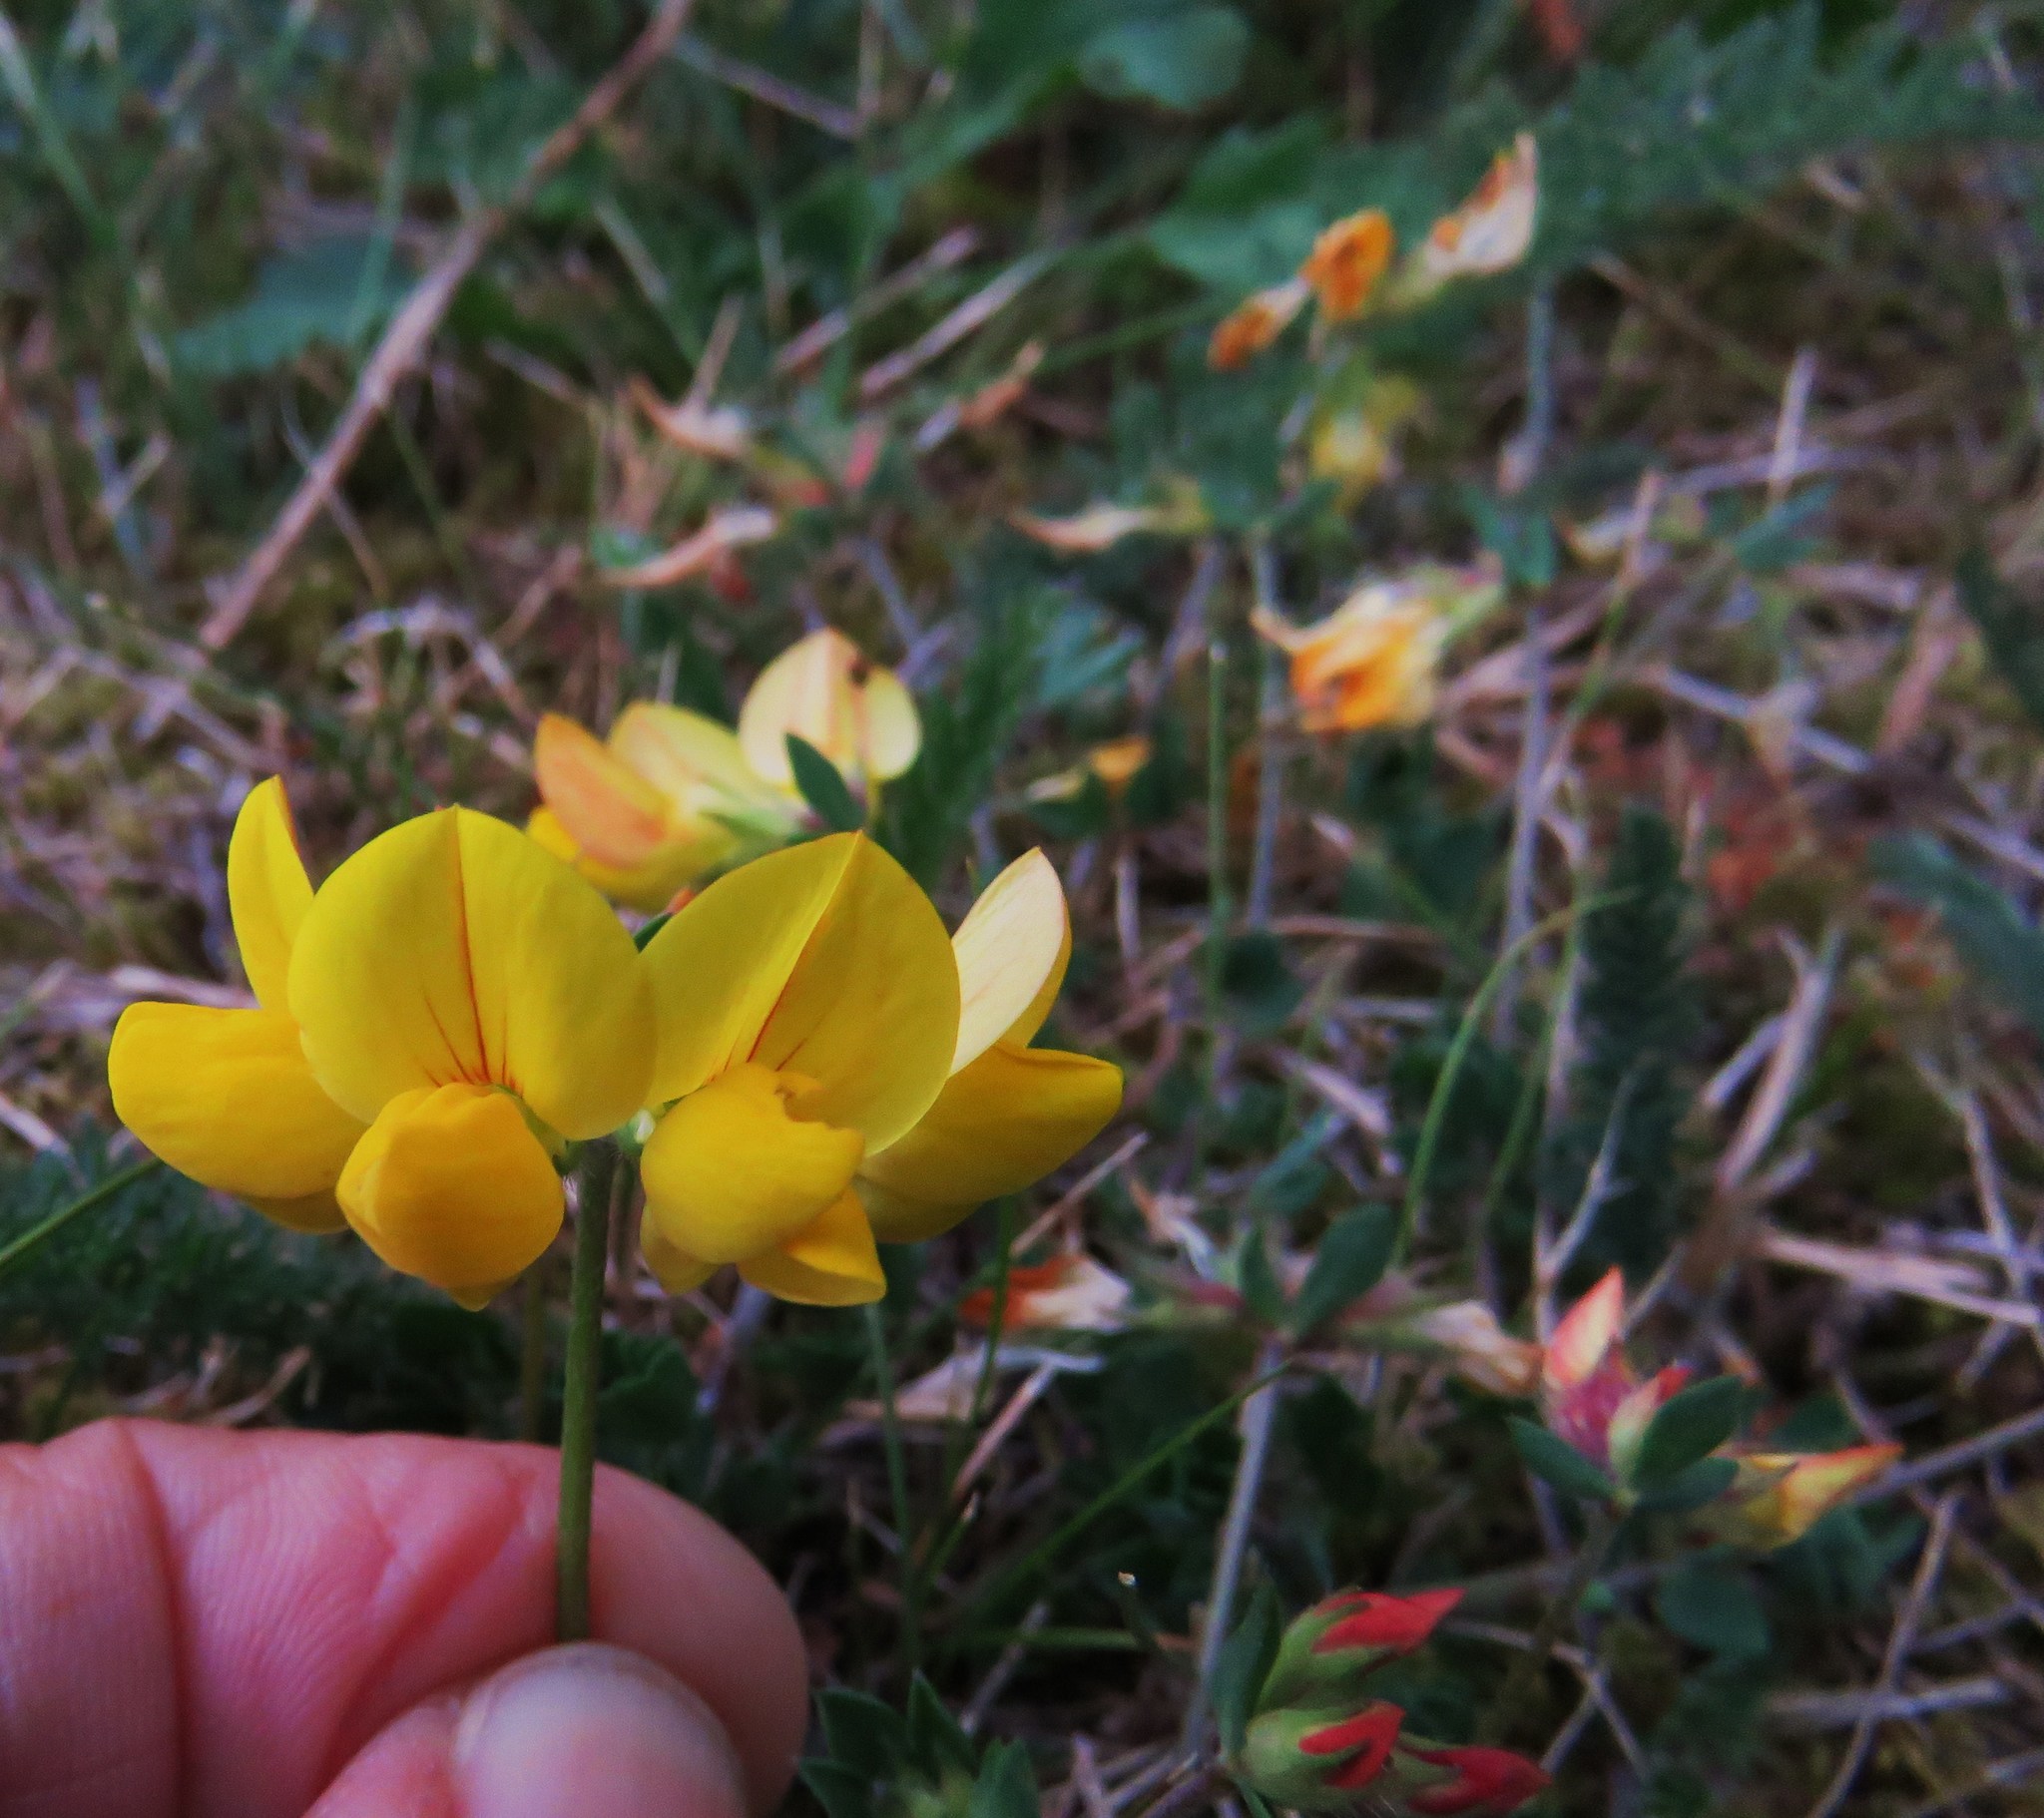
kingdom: Plantae
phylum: Tracheophyta
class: Magnoliopsida
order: Fabales
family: Fabaceae
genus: Lotus
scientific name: Lotus corniculatus
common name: Common bird's-foot-trefoil
